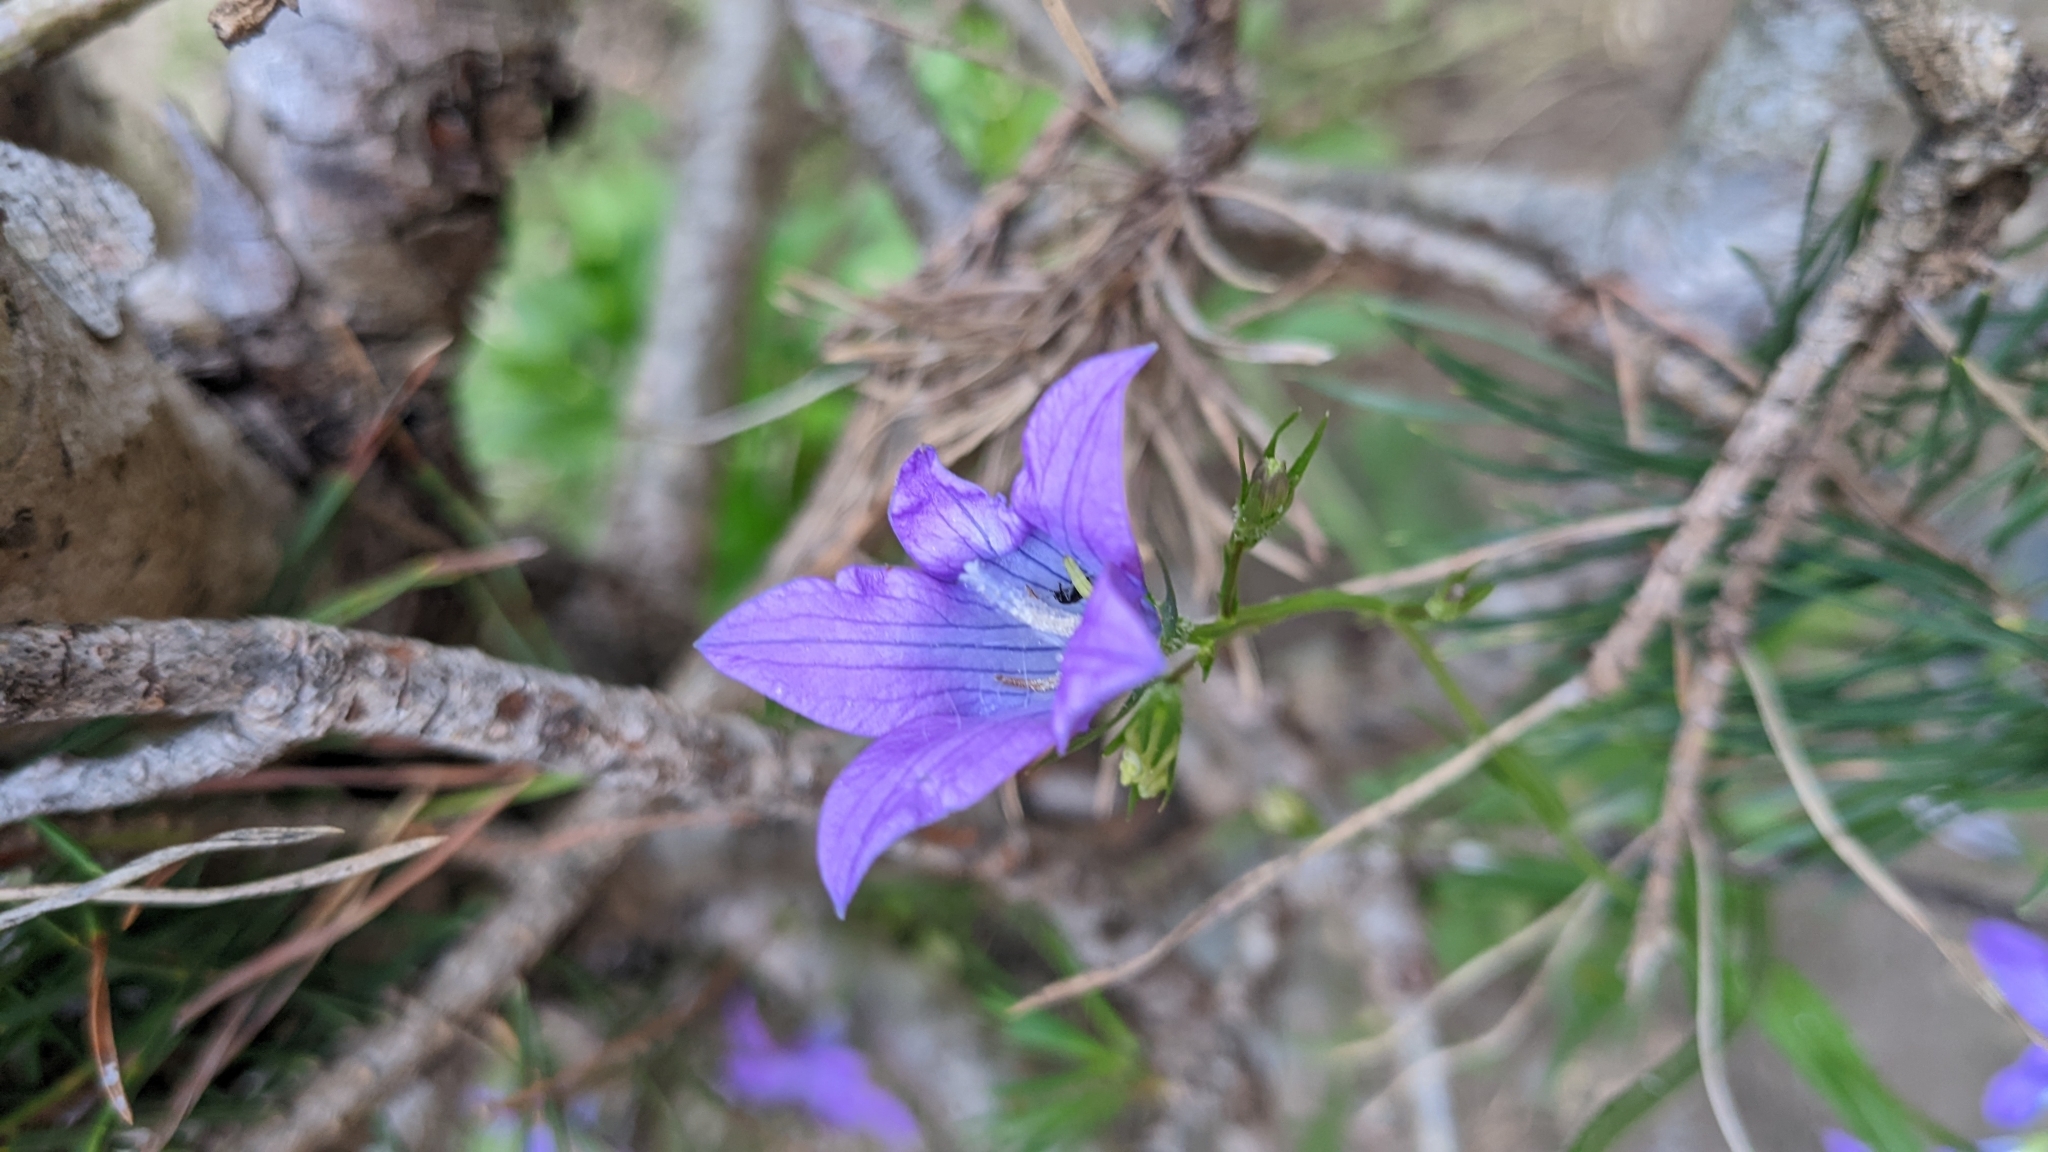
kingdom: Plantae
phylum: Tracheophyta
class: Magnoliopsida
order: Asterales
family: Campanulaceae
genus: Campanula
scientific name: Campanula patula
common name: Spreading bellflower
